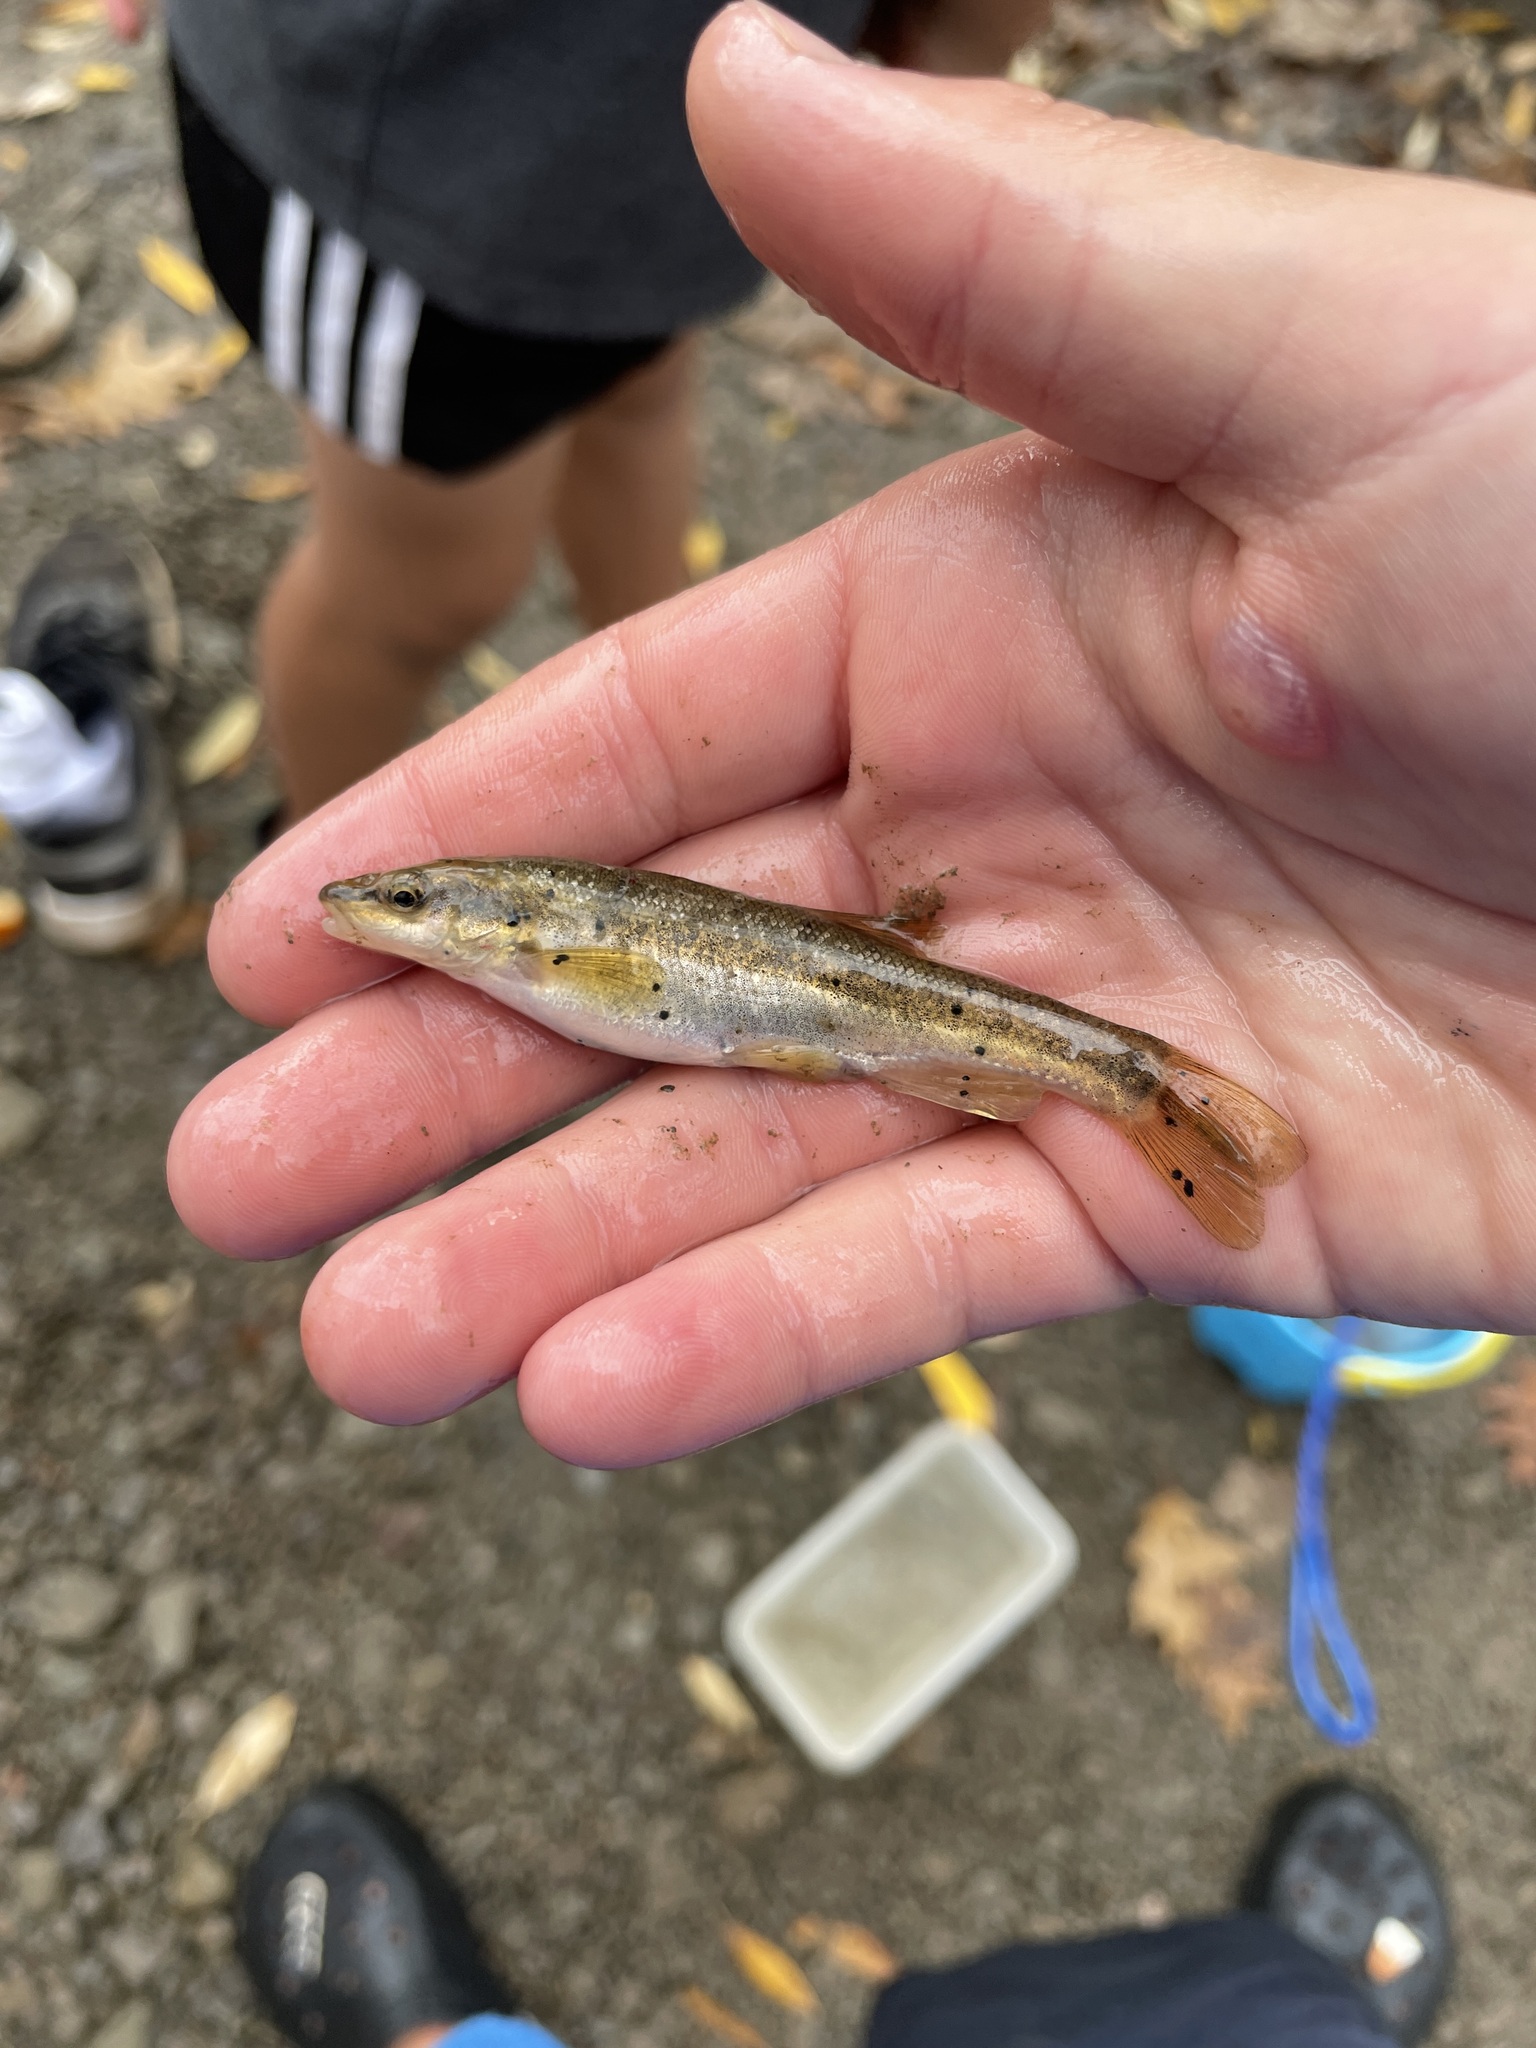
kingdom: Animalia
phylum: Chordata
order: Cypriniformes
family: Cyprinidae
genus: Rhinichthys
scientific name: Rhinichthys obtusus
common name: Western blacknose dace
